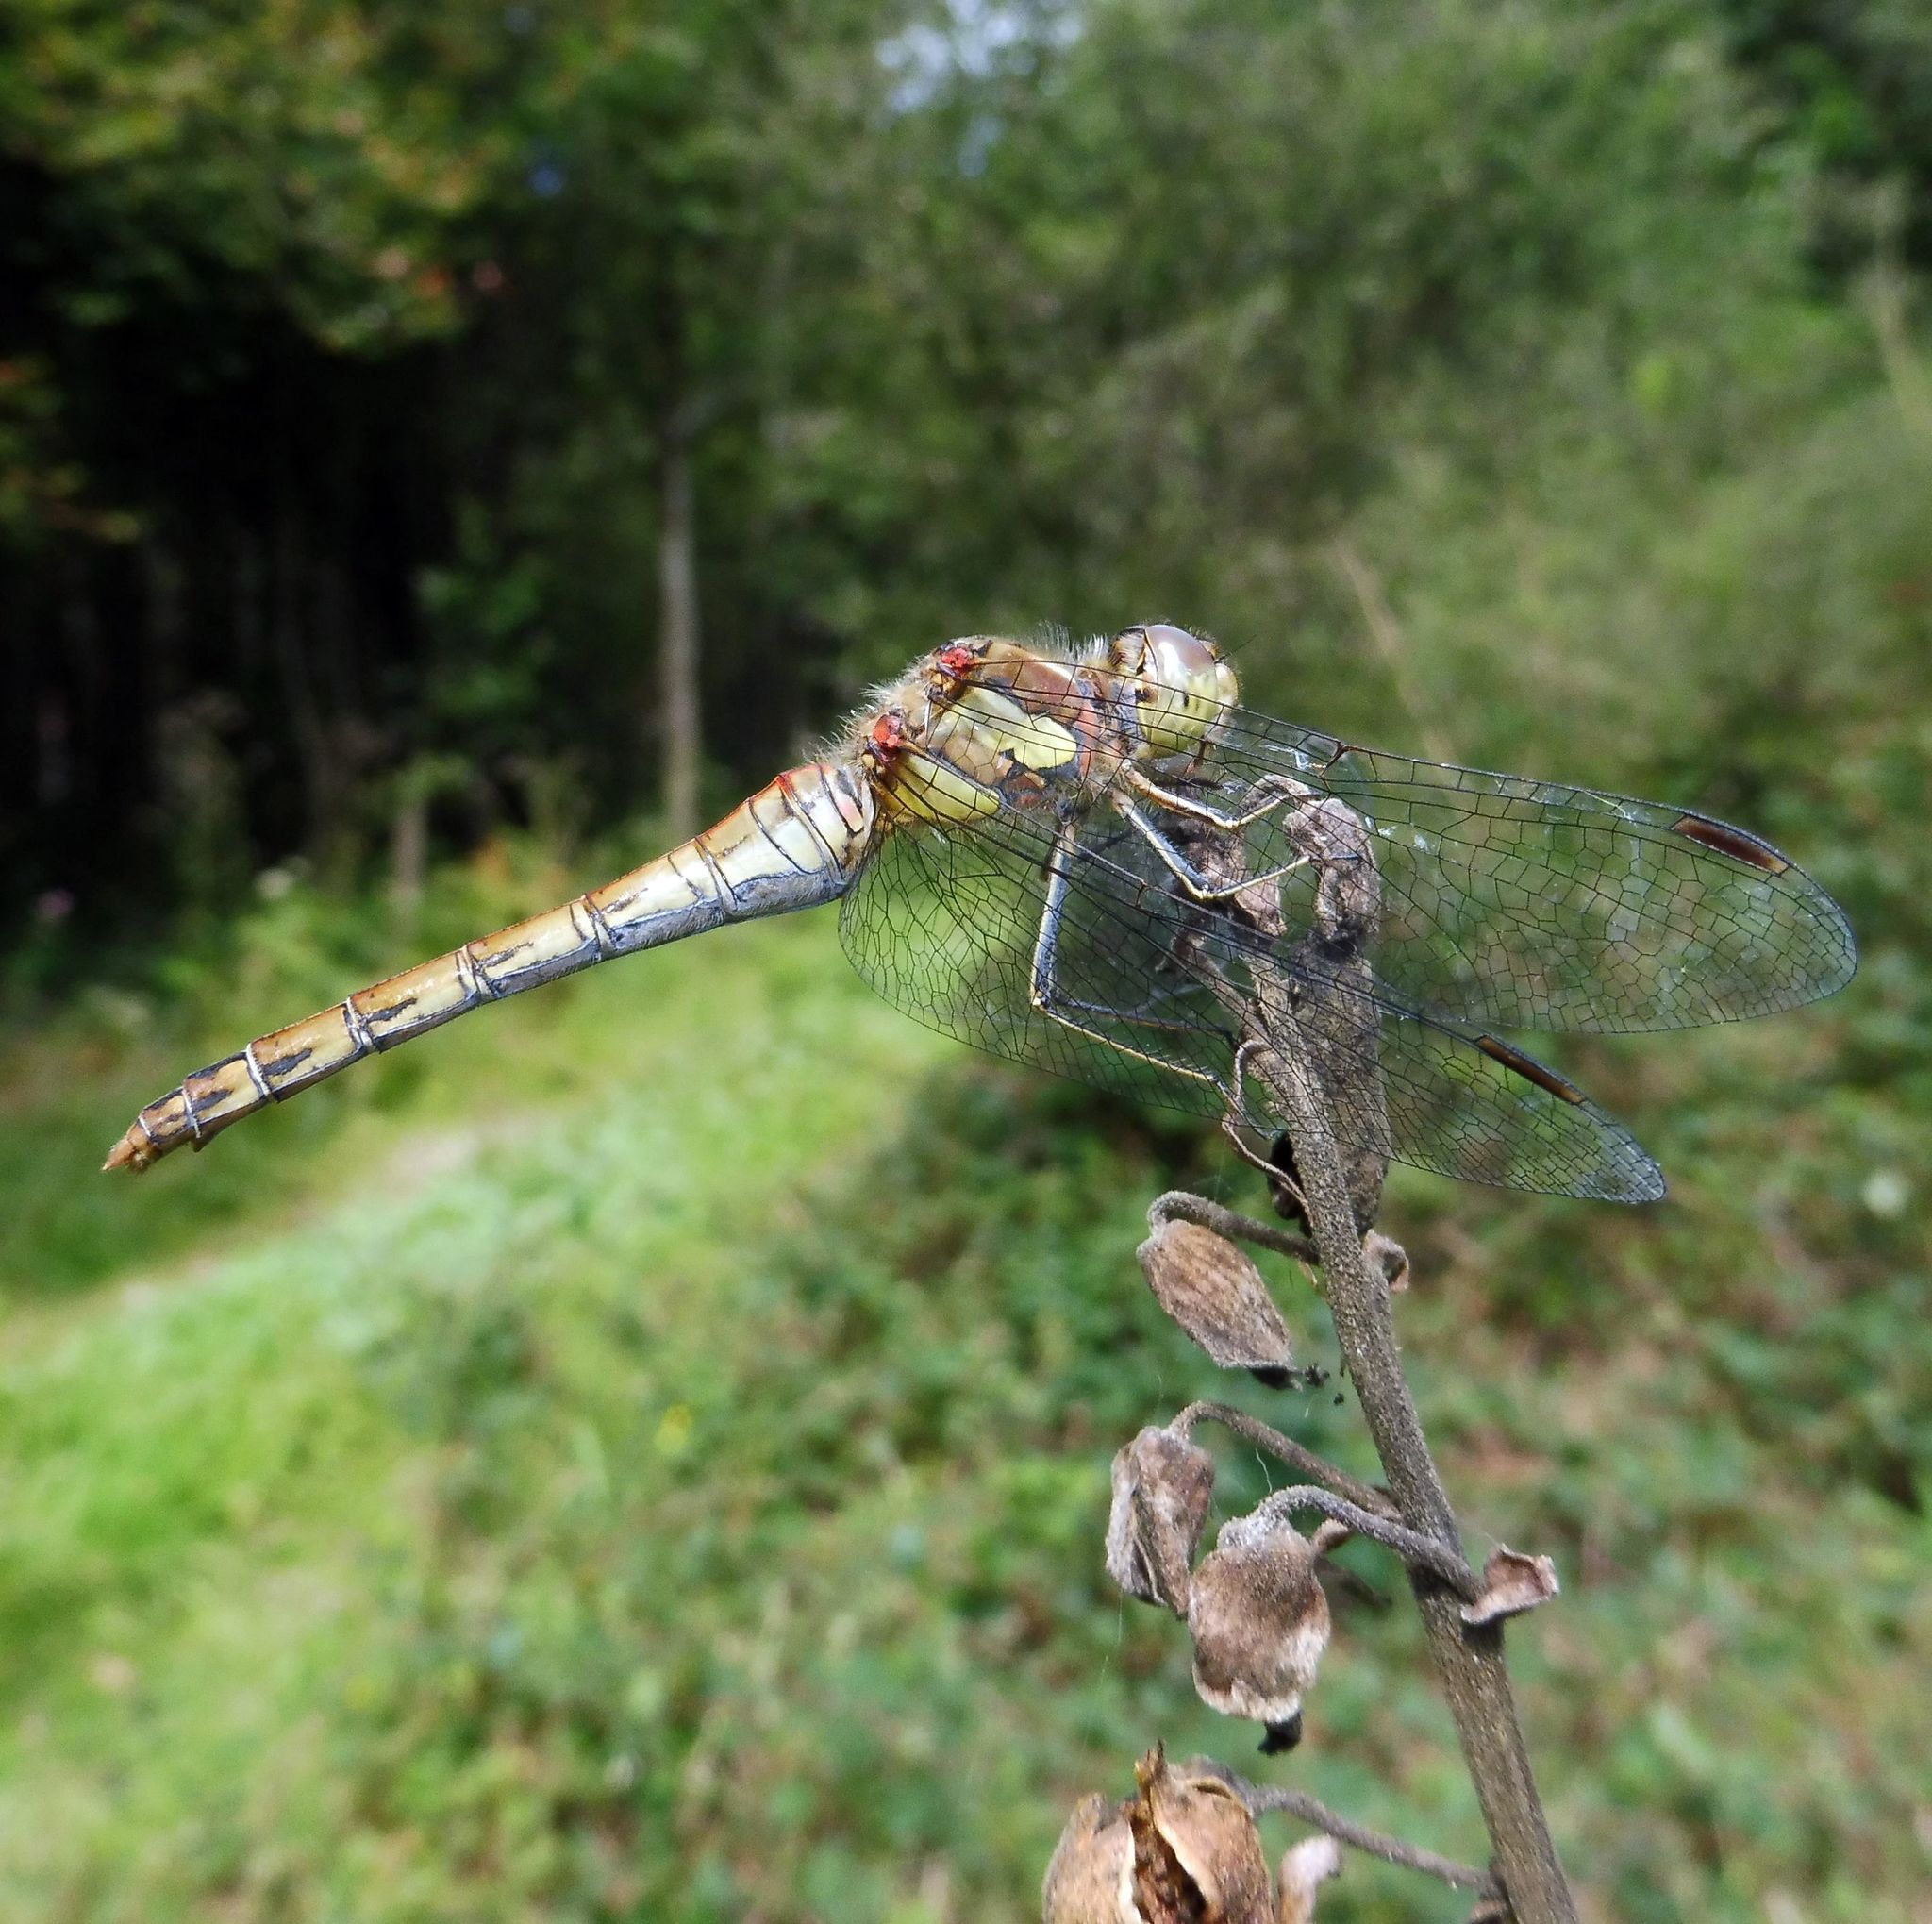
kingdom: Animalia
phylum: Arthropoda
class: Insecta
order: Odonata
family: Libellulidae
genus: Sympetrum
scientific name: Sympetrum striolatum
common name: Common darter
